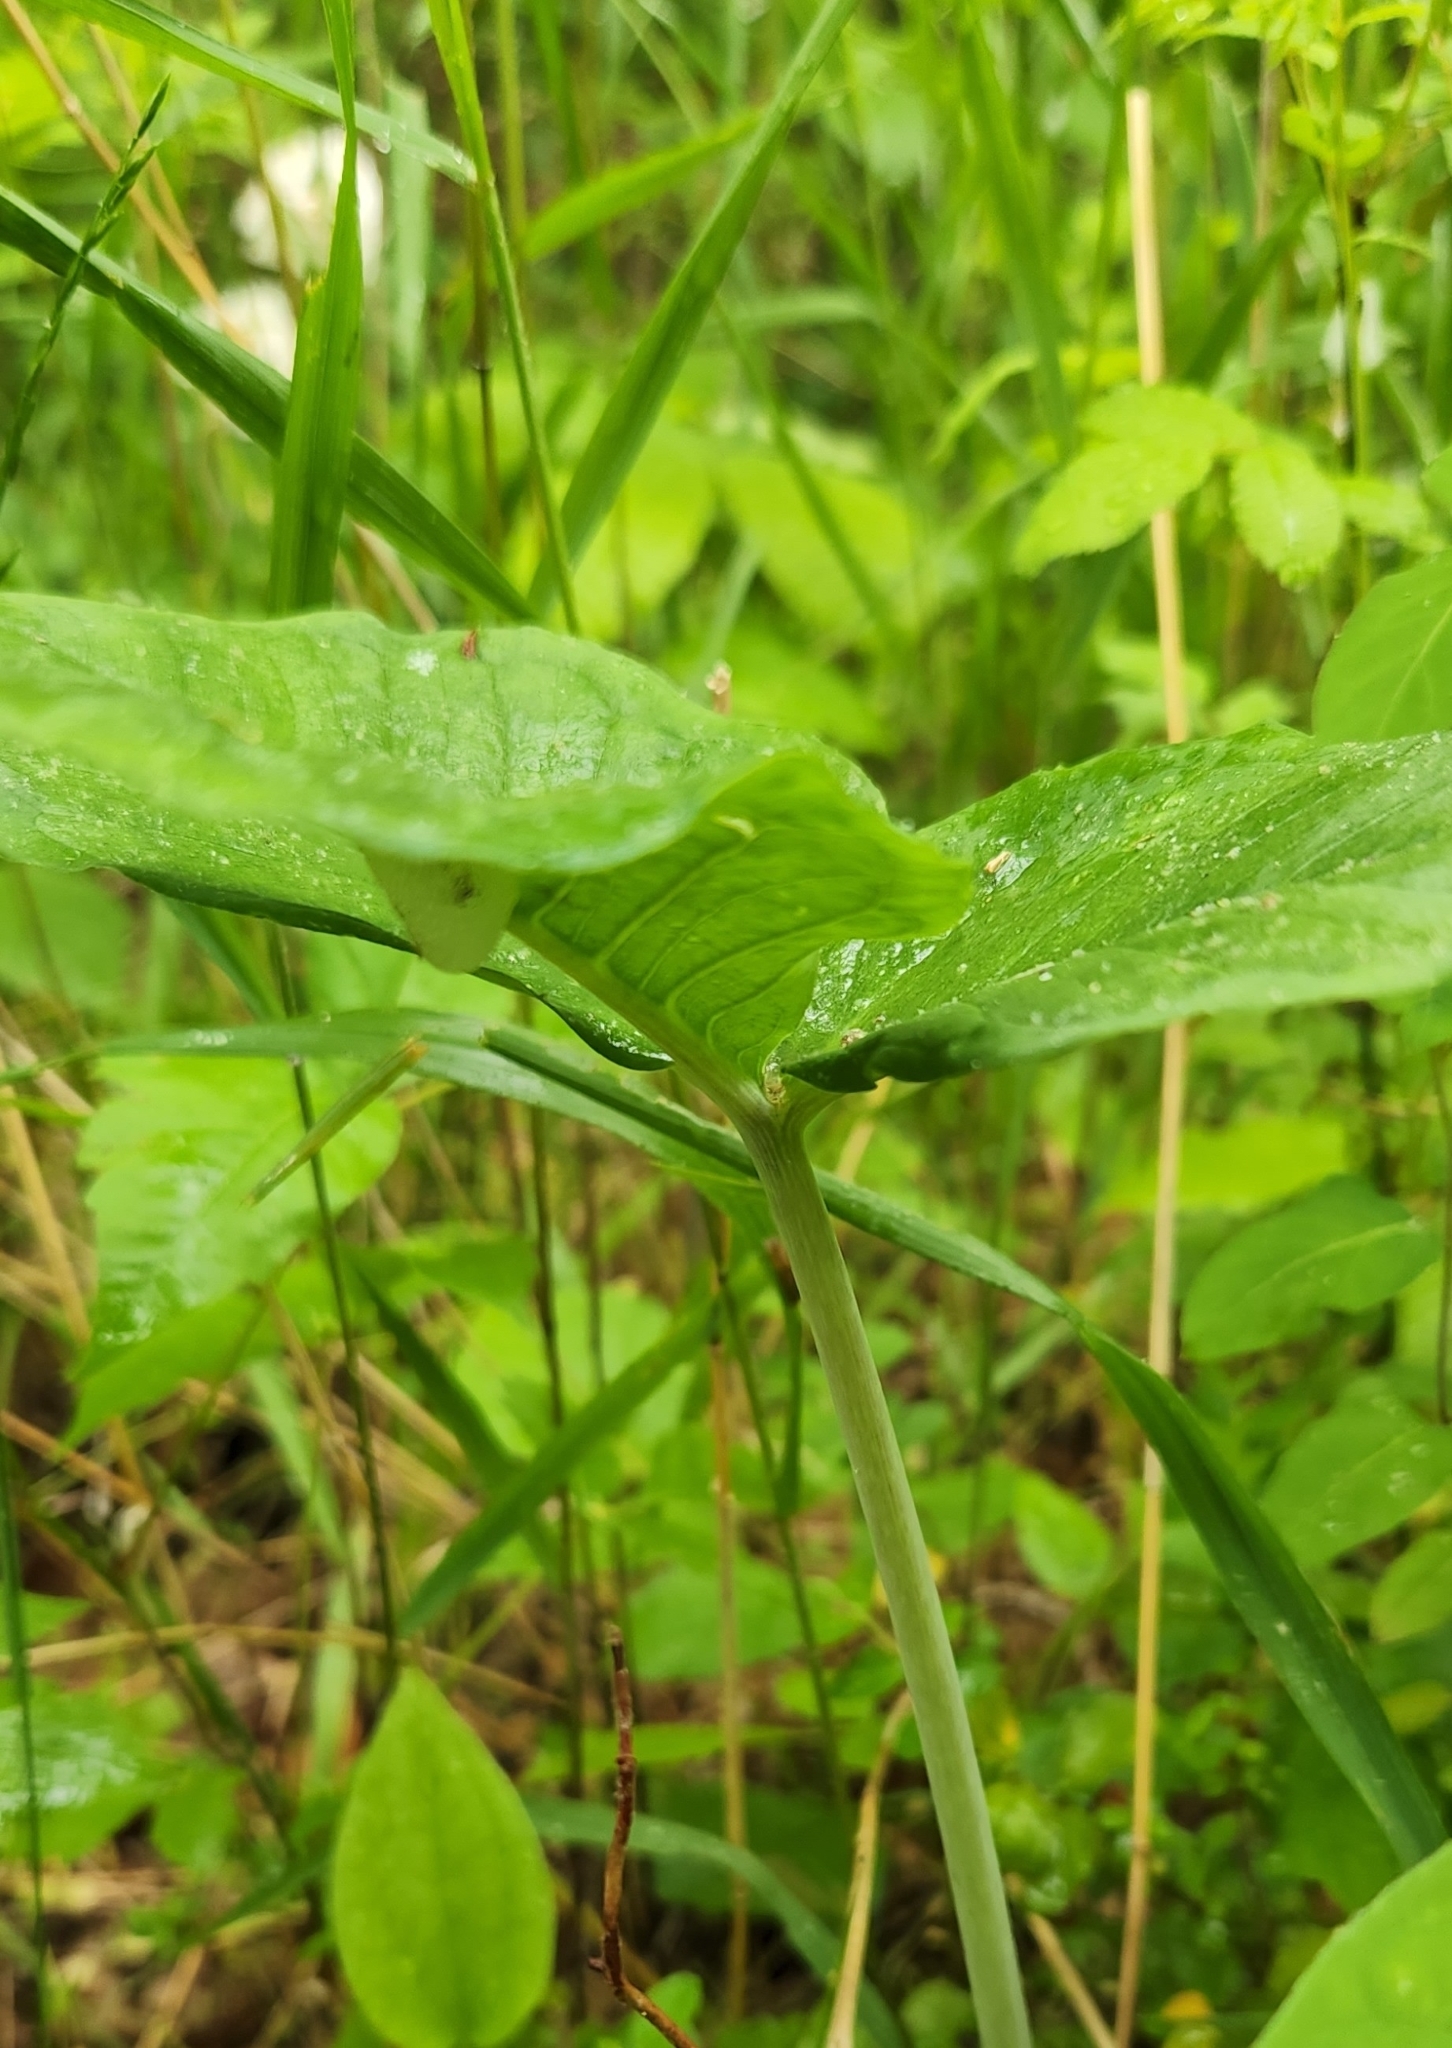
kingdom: Plantae
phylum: Tracheophyta
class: Liliopsida
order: Alismatales
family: Araceae
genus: Arisaema
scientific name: Arisaema triphyllum
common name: Jack-in-the-pulpit
